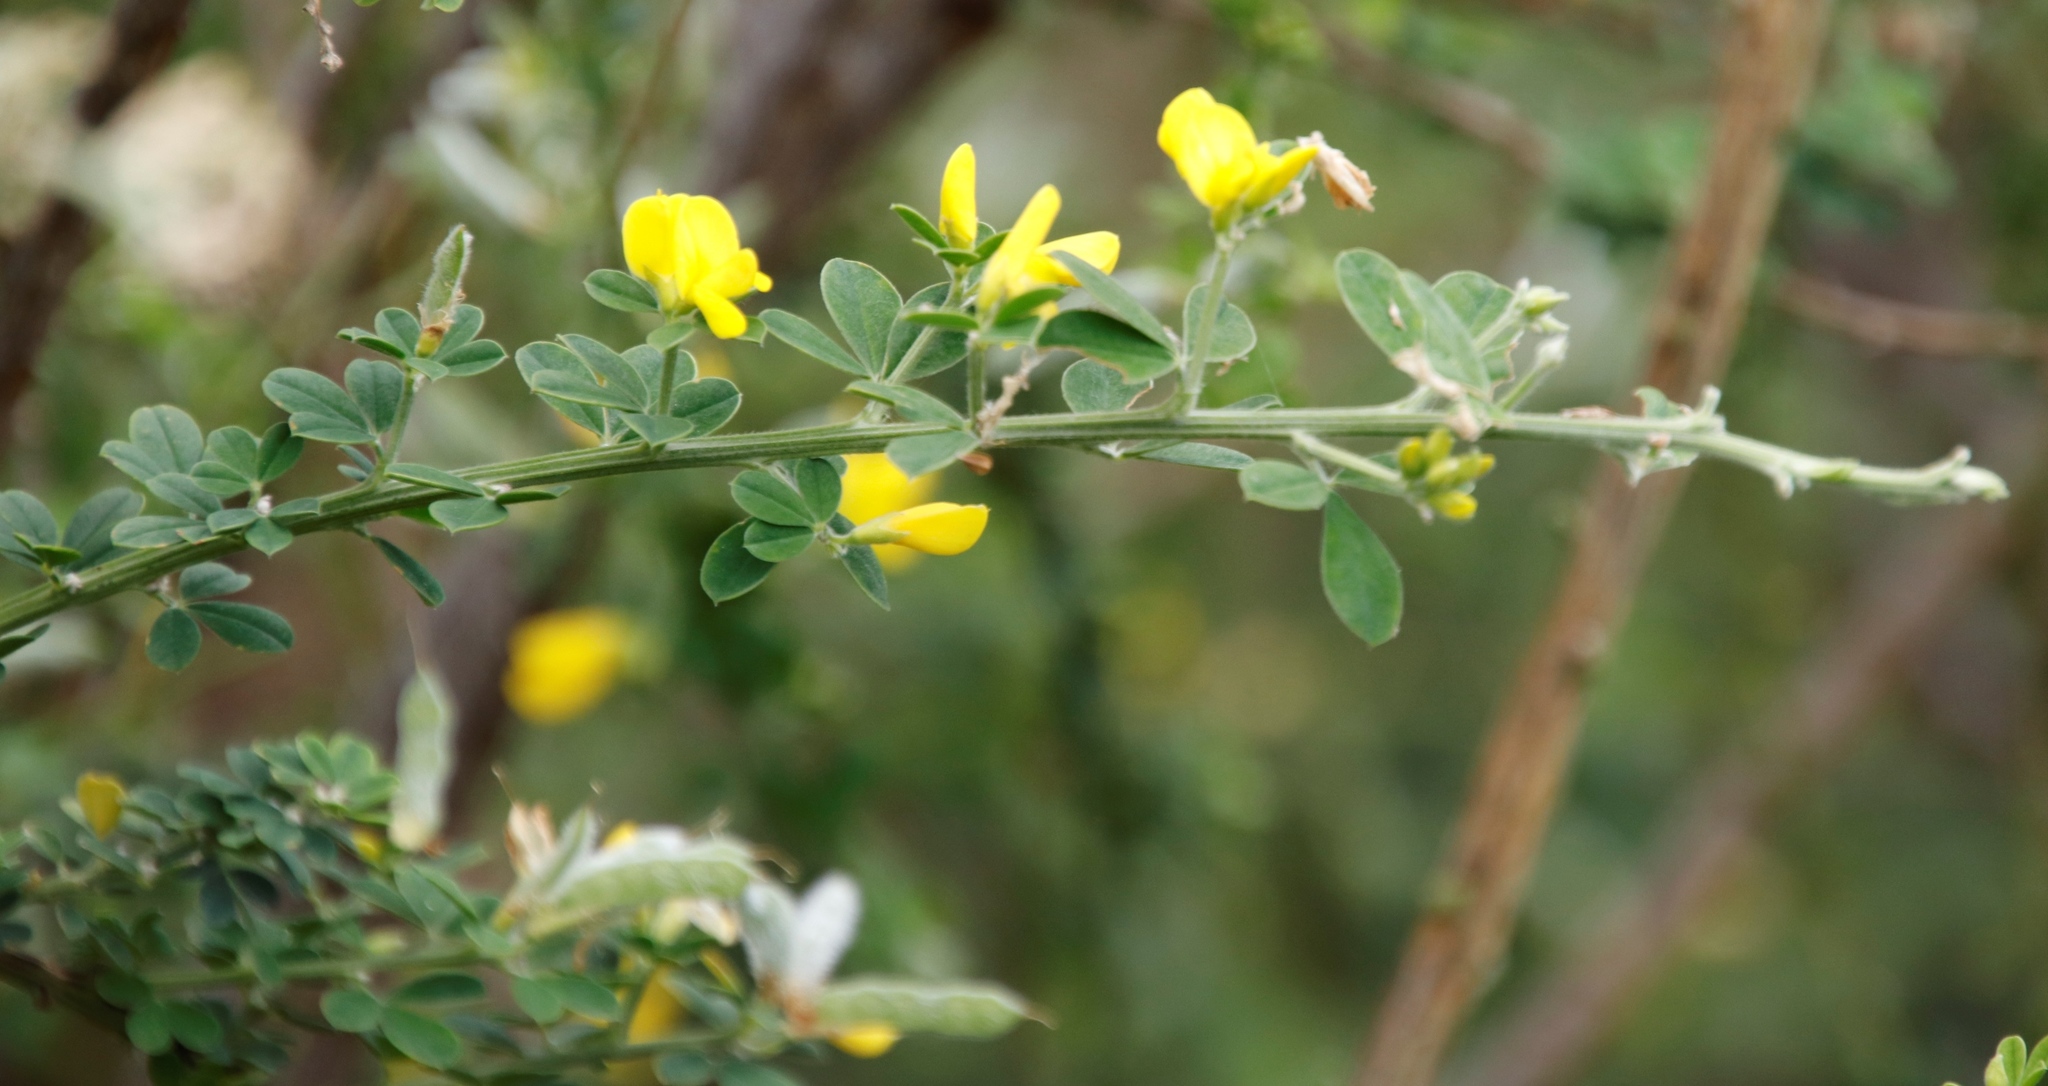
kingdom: Plantae
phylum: Tracheophyta
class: Magnoliopsida
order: Fabales
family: Fabaceae
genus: Genista
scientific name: Genista monspessulana
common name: Montpellier broom
